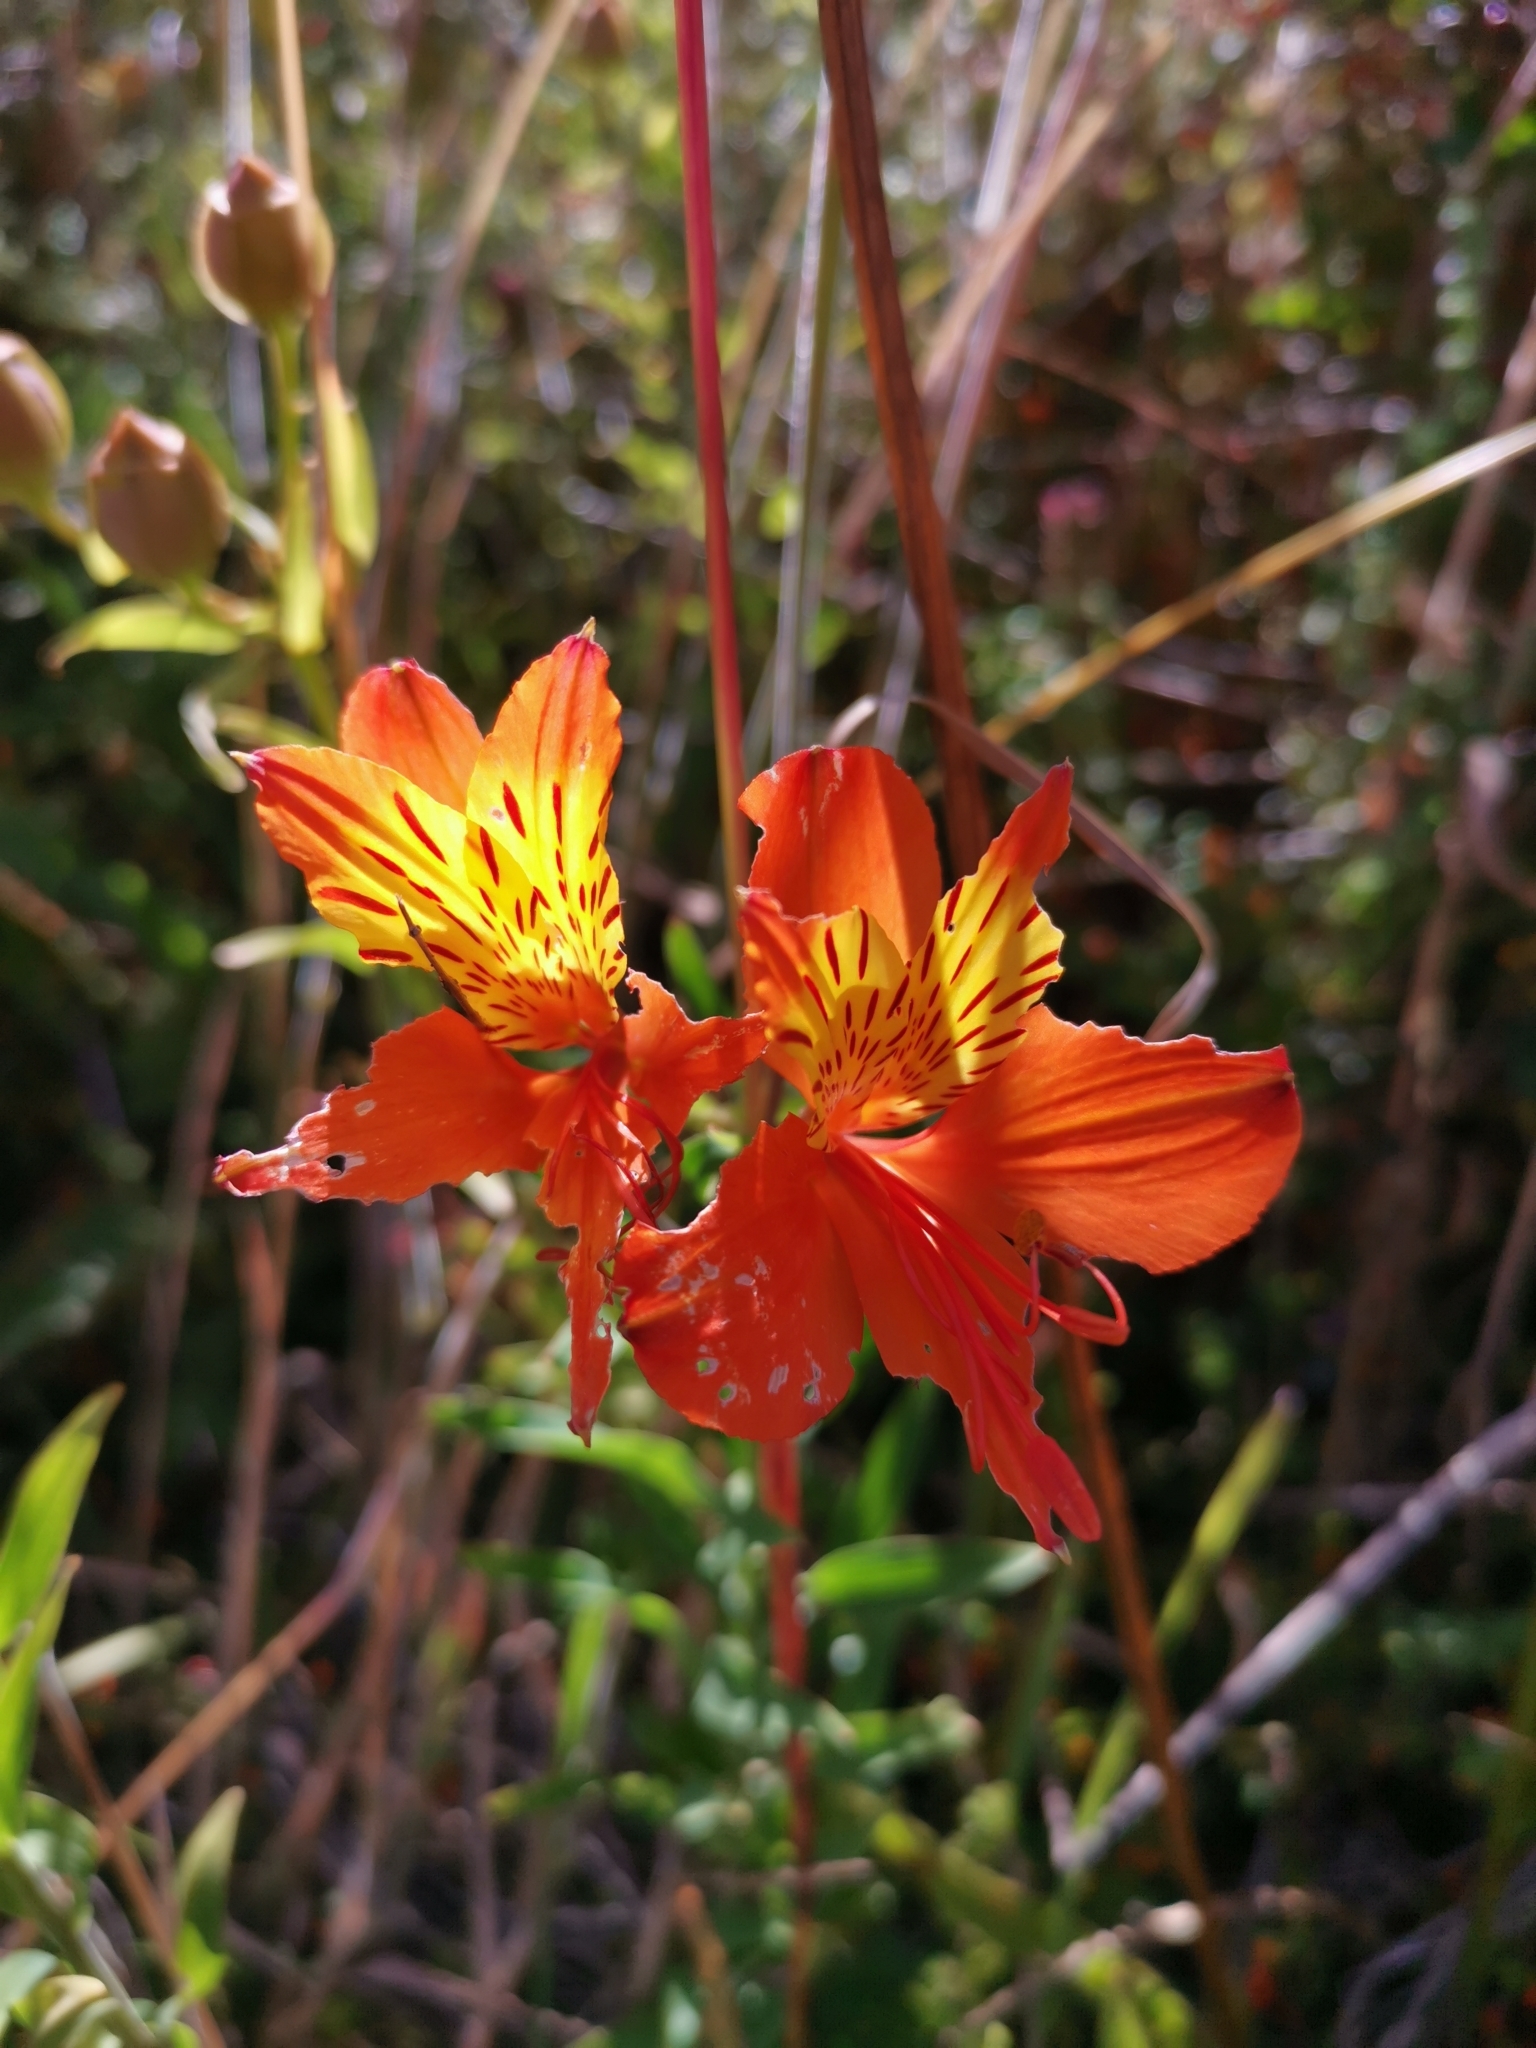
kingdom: Plantae
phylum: Tracheophyta
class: Liliopsida
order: Liliales
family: Alstroemeriaceae
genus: Alstroemeria
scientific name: Alstroemeria aurea
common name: Peruvian lily
